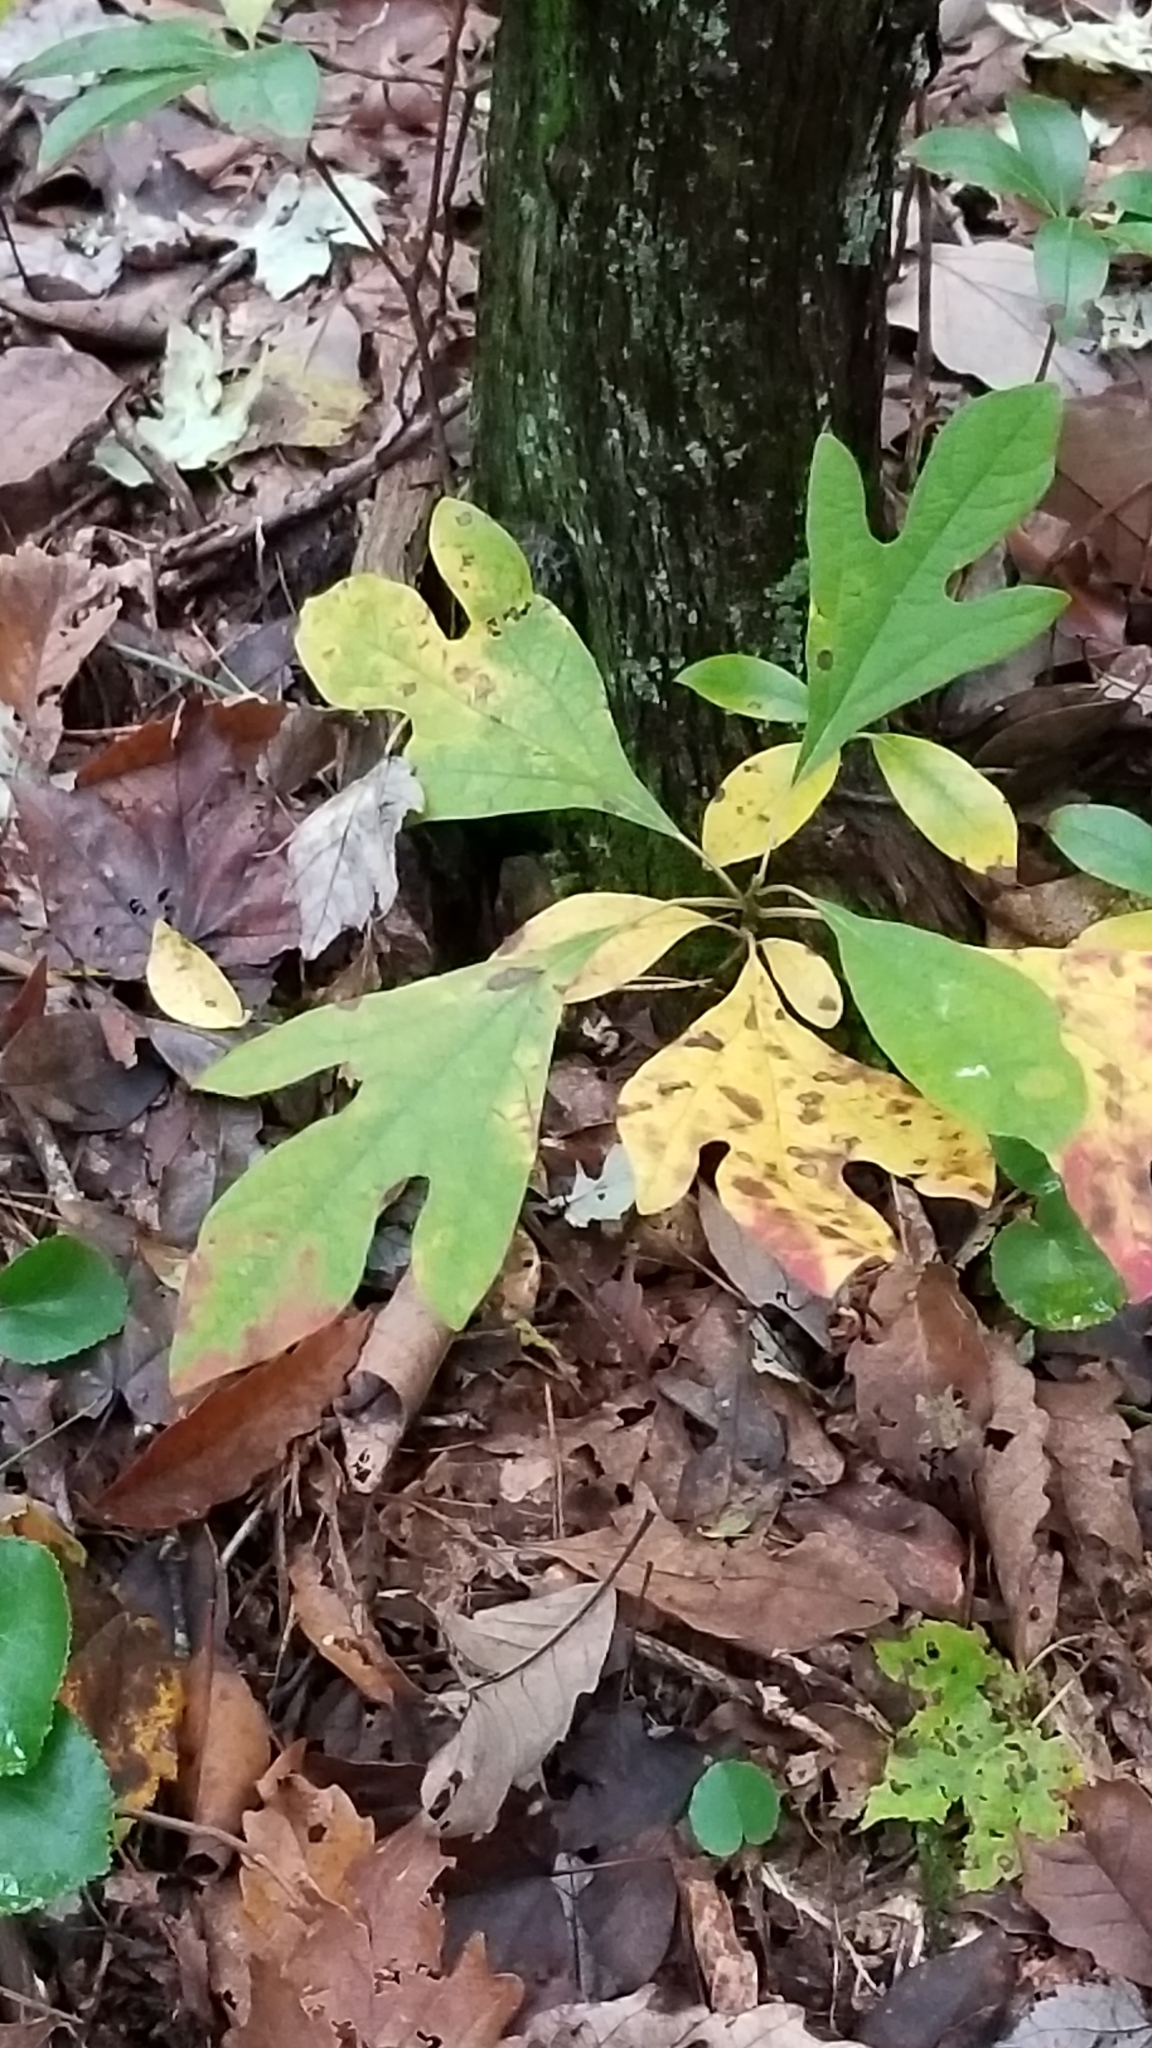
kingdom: Plantae
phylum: Tracheophyta
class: Magnoliopsida
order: Laurales
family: Lauraceae
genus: Sassafras
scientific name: Sassafras albidum
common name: Sassafras
